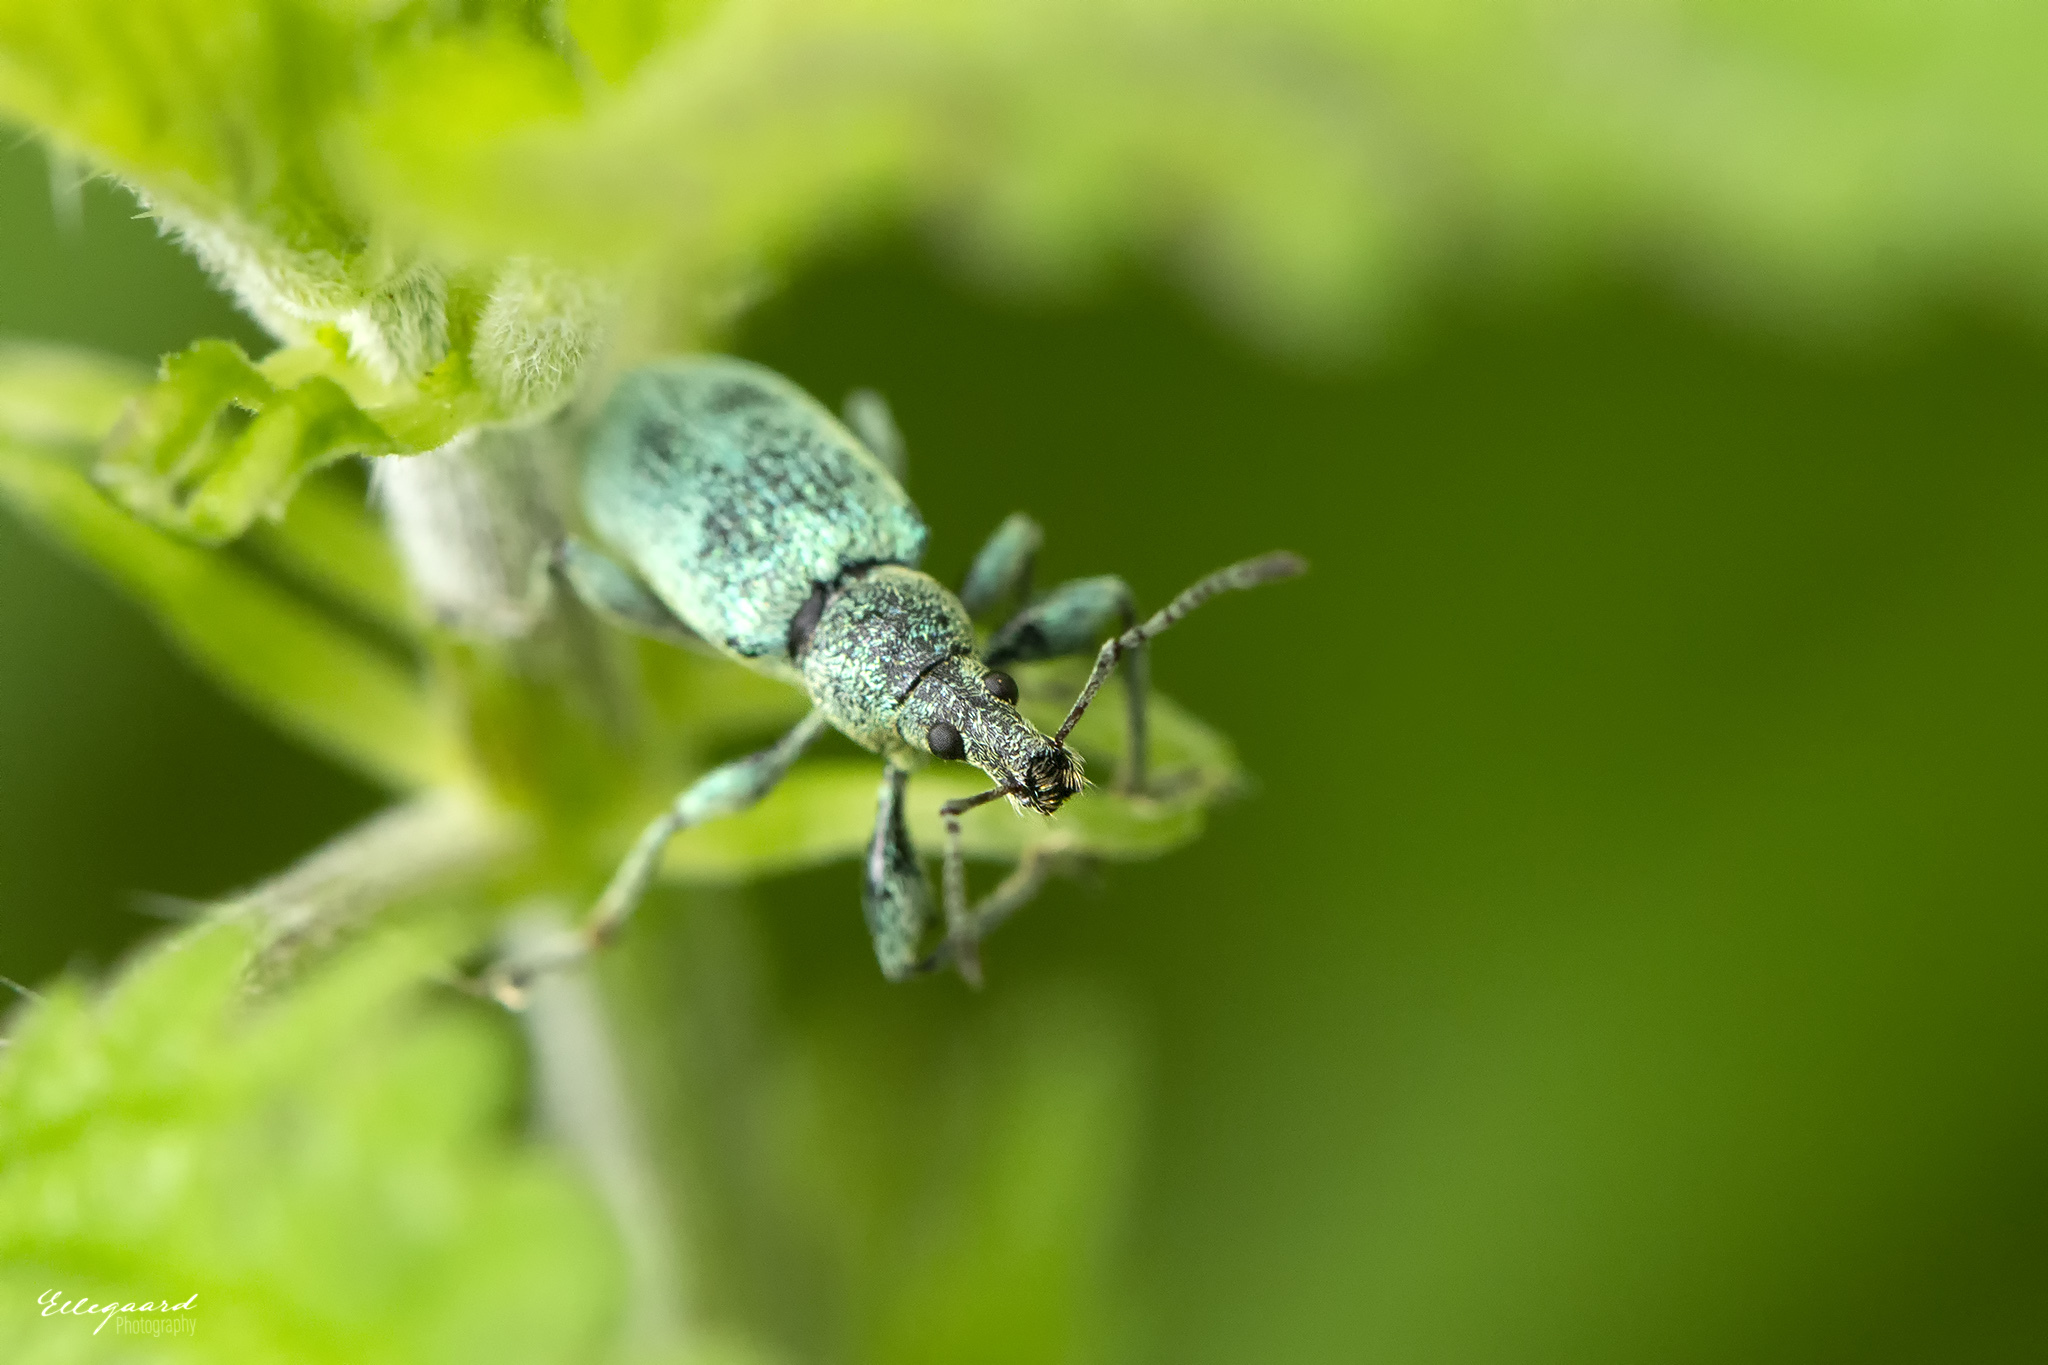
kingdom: Animalia
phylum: Arthropoda
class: Insecta
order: Coleoptera
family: Curculionidae
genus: Phyllobius
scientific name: Phyllobius pomaceus
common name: Green nettle weevil
